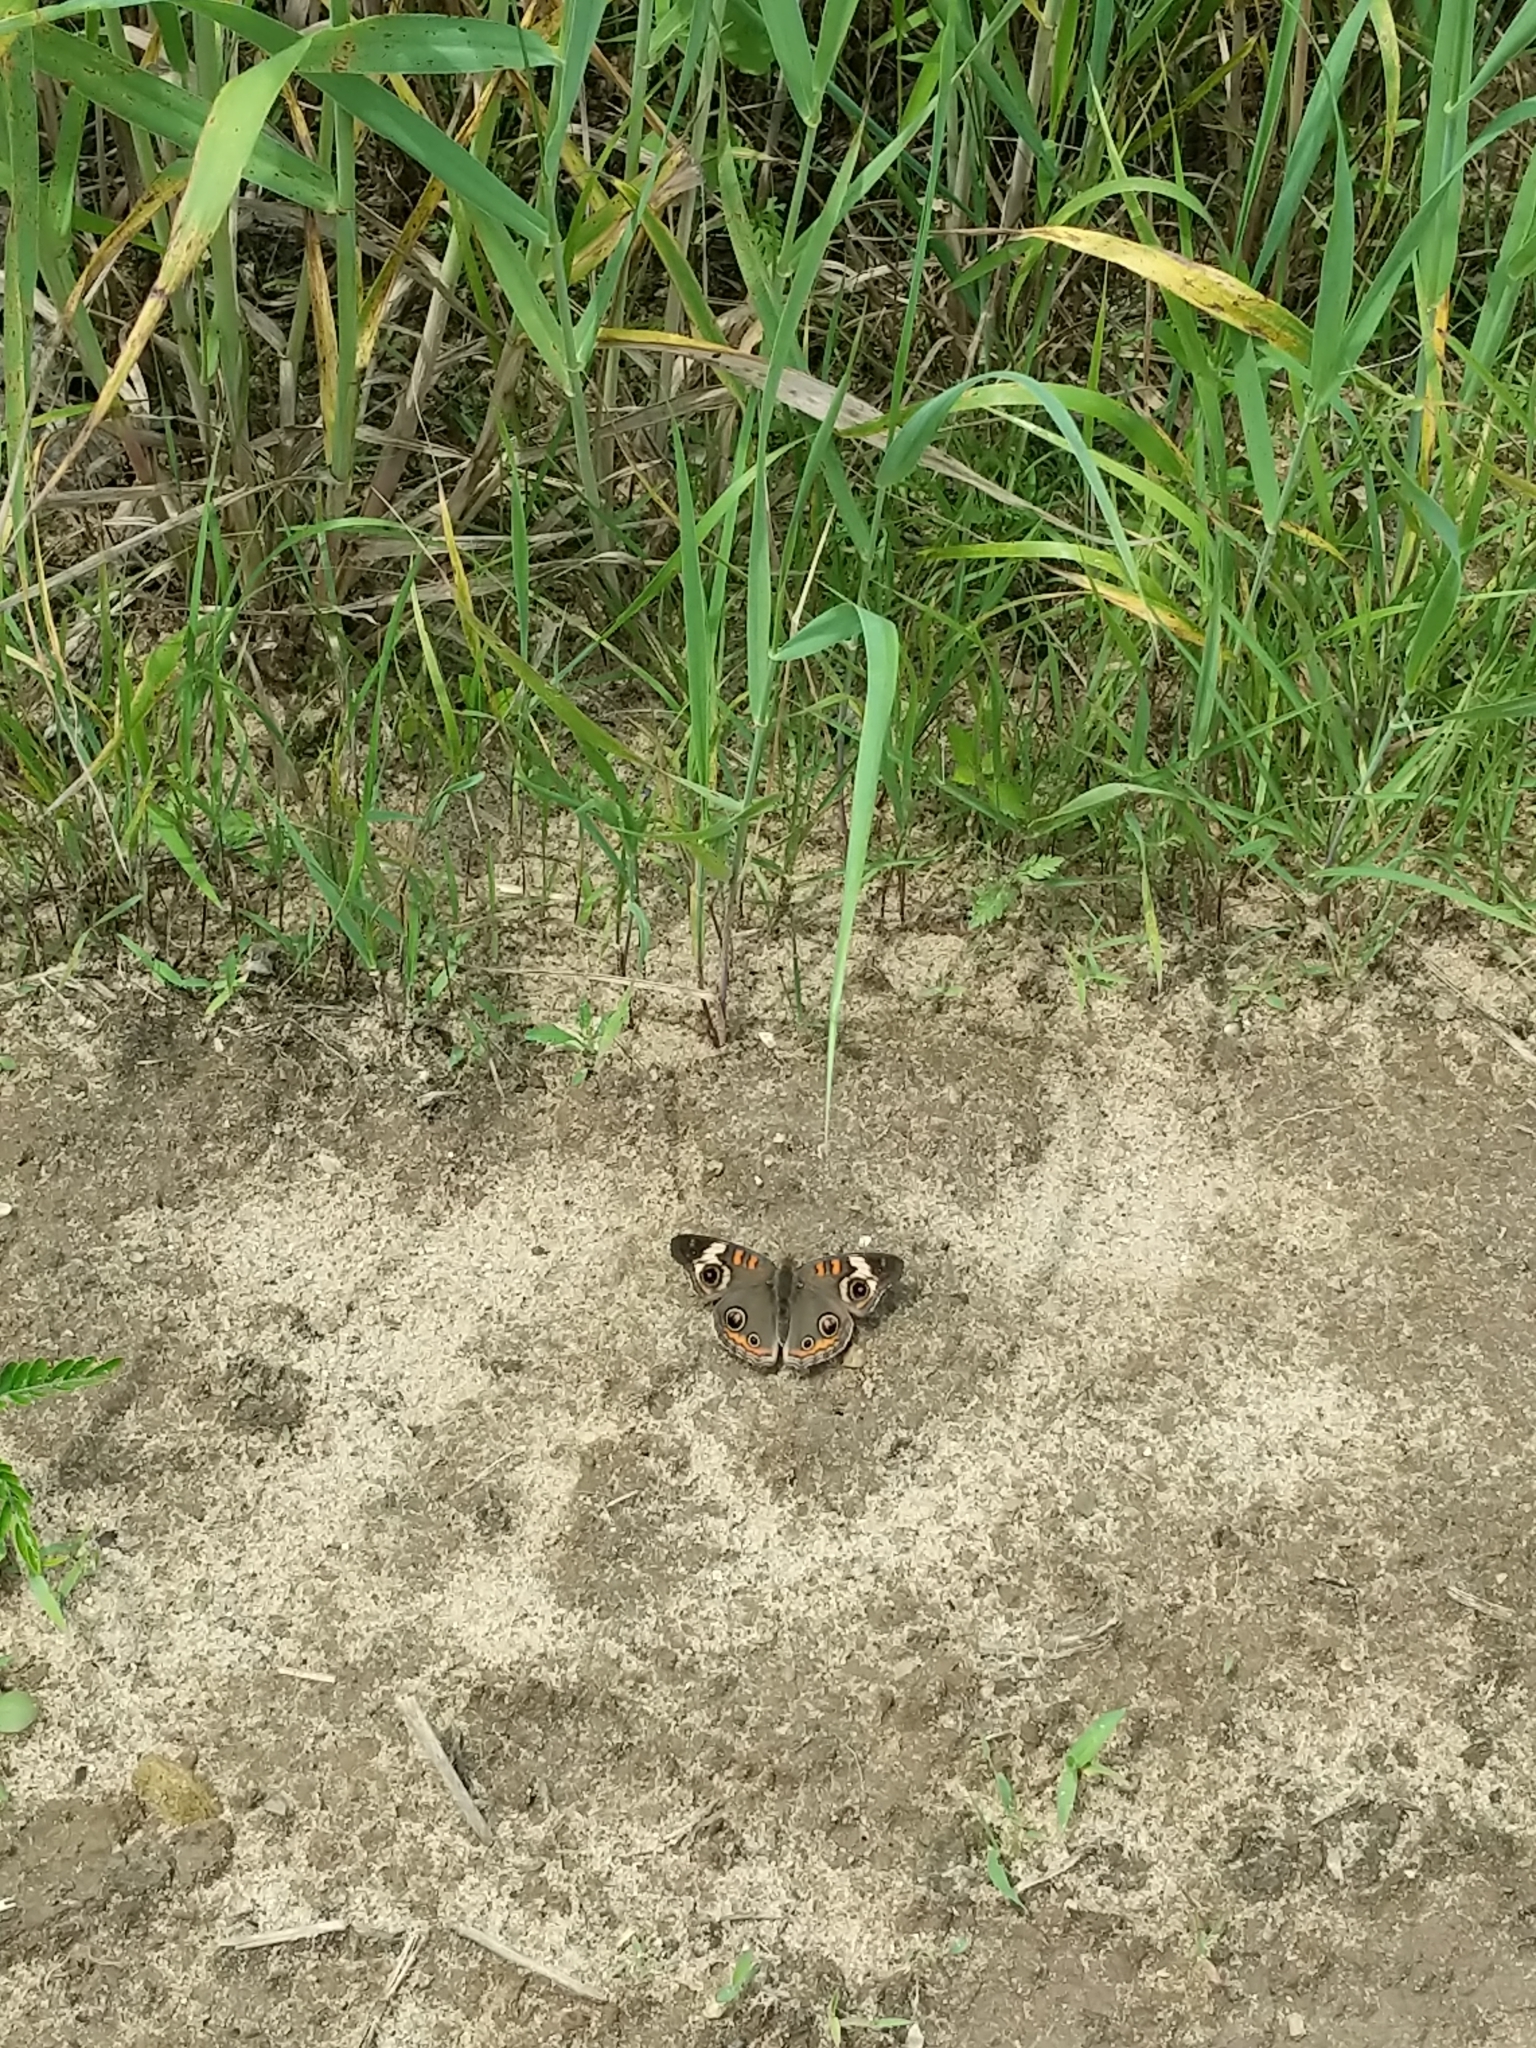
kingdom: Animalia
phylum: Arthropoda
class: Insecta
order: Lepidoptera
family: Nymphalidae
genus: Junonia
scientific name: Junonia coenia
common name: Common buckeye
